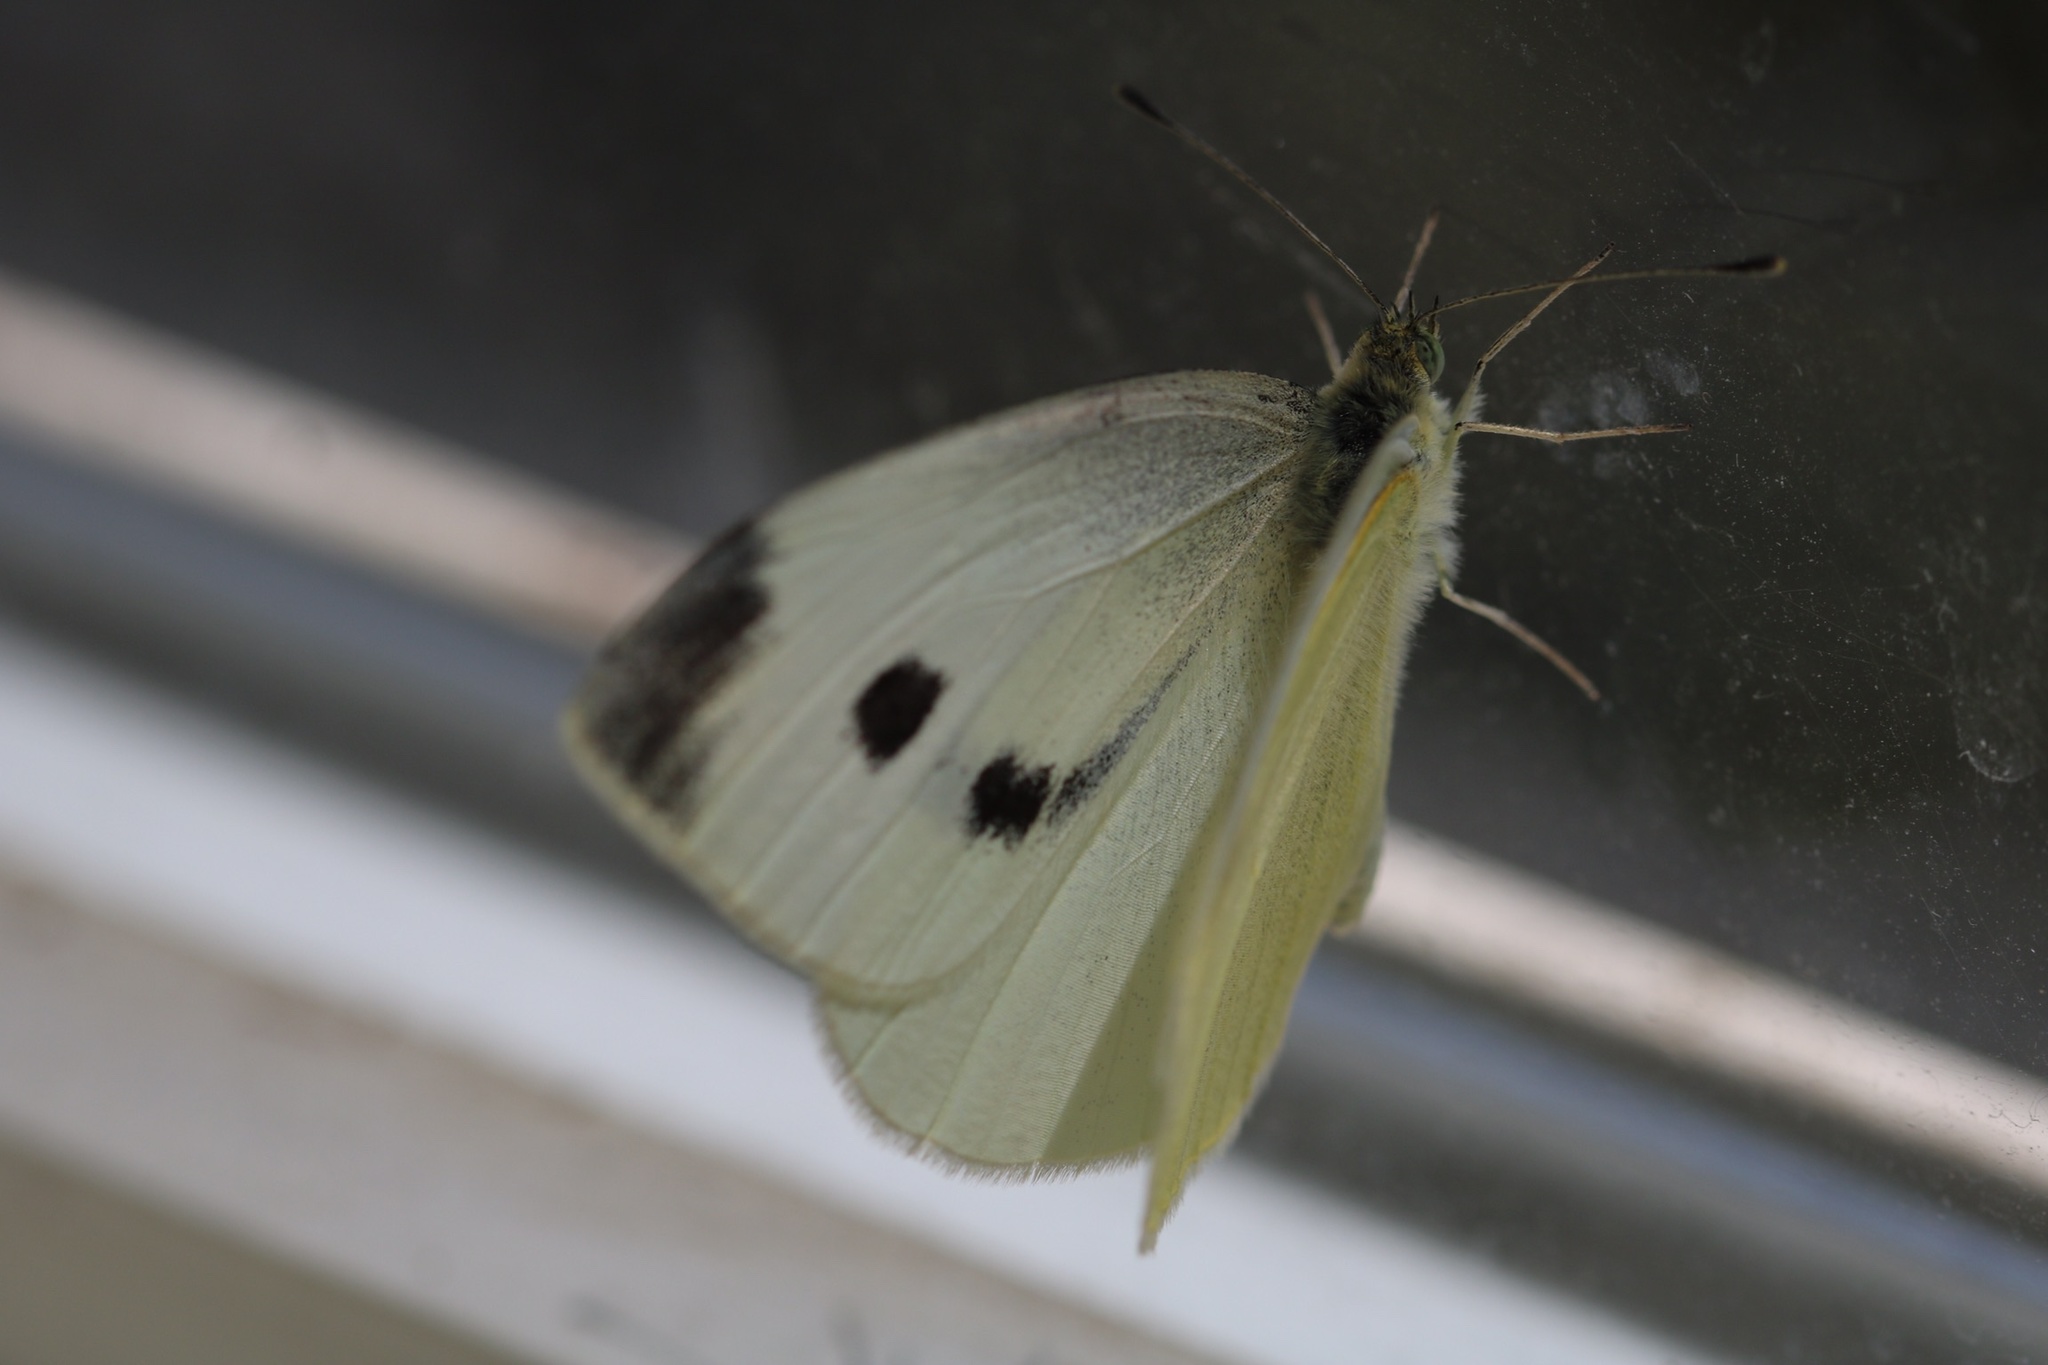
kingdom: Animalia
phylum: Arthropoda
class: Insecta
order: Lepidoptera
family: Pieridae
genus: Pieris
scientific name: Pieris rapae
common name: Small white
